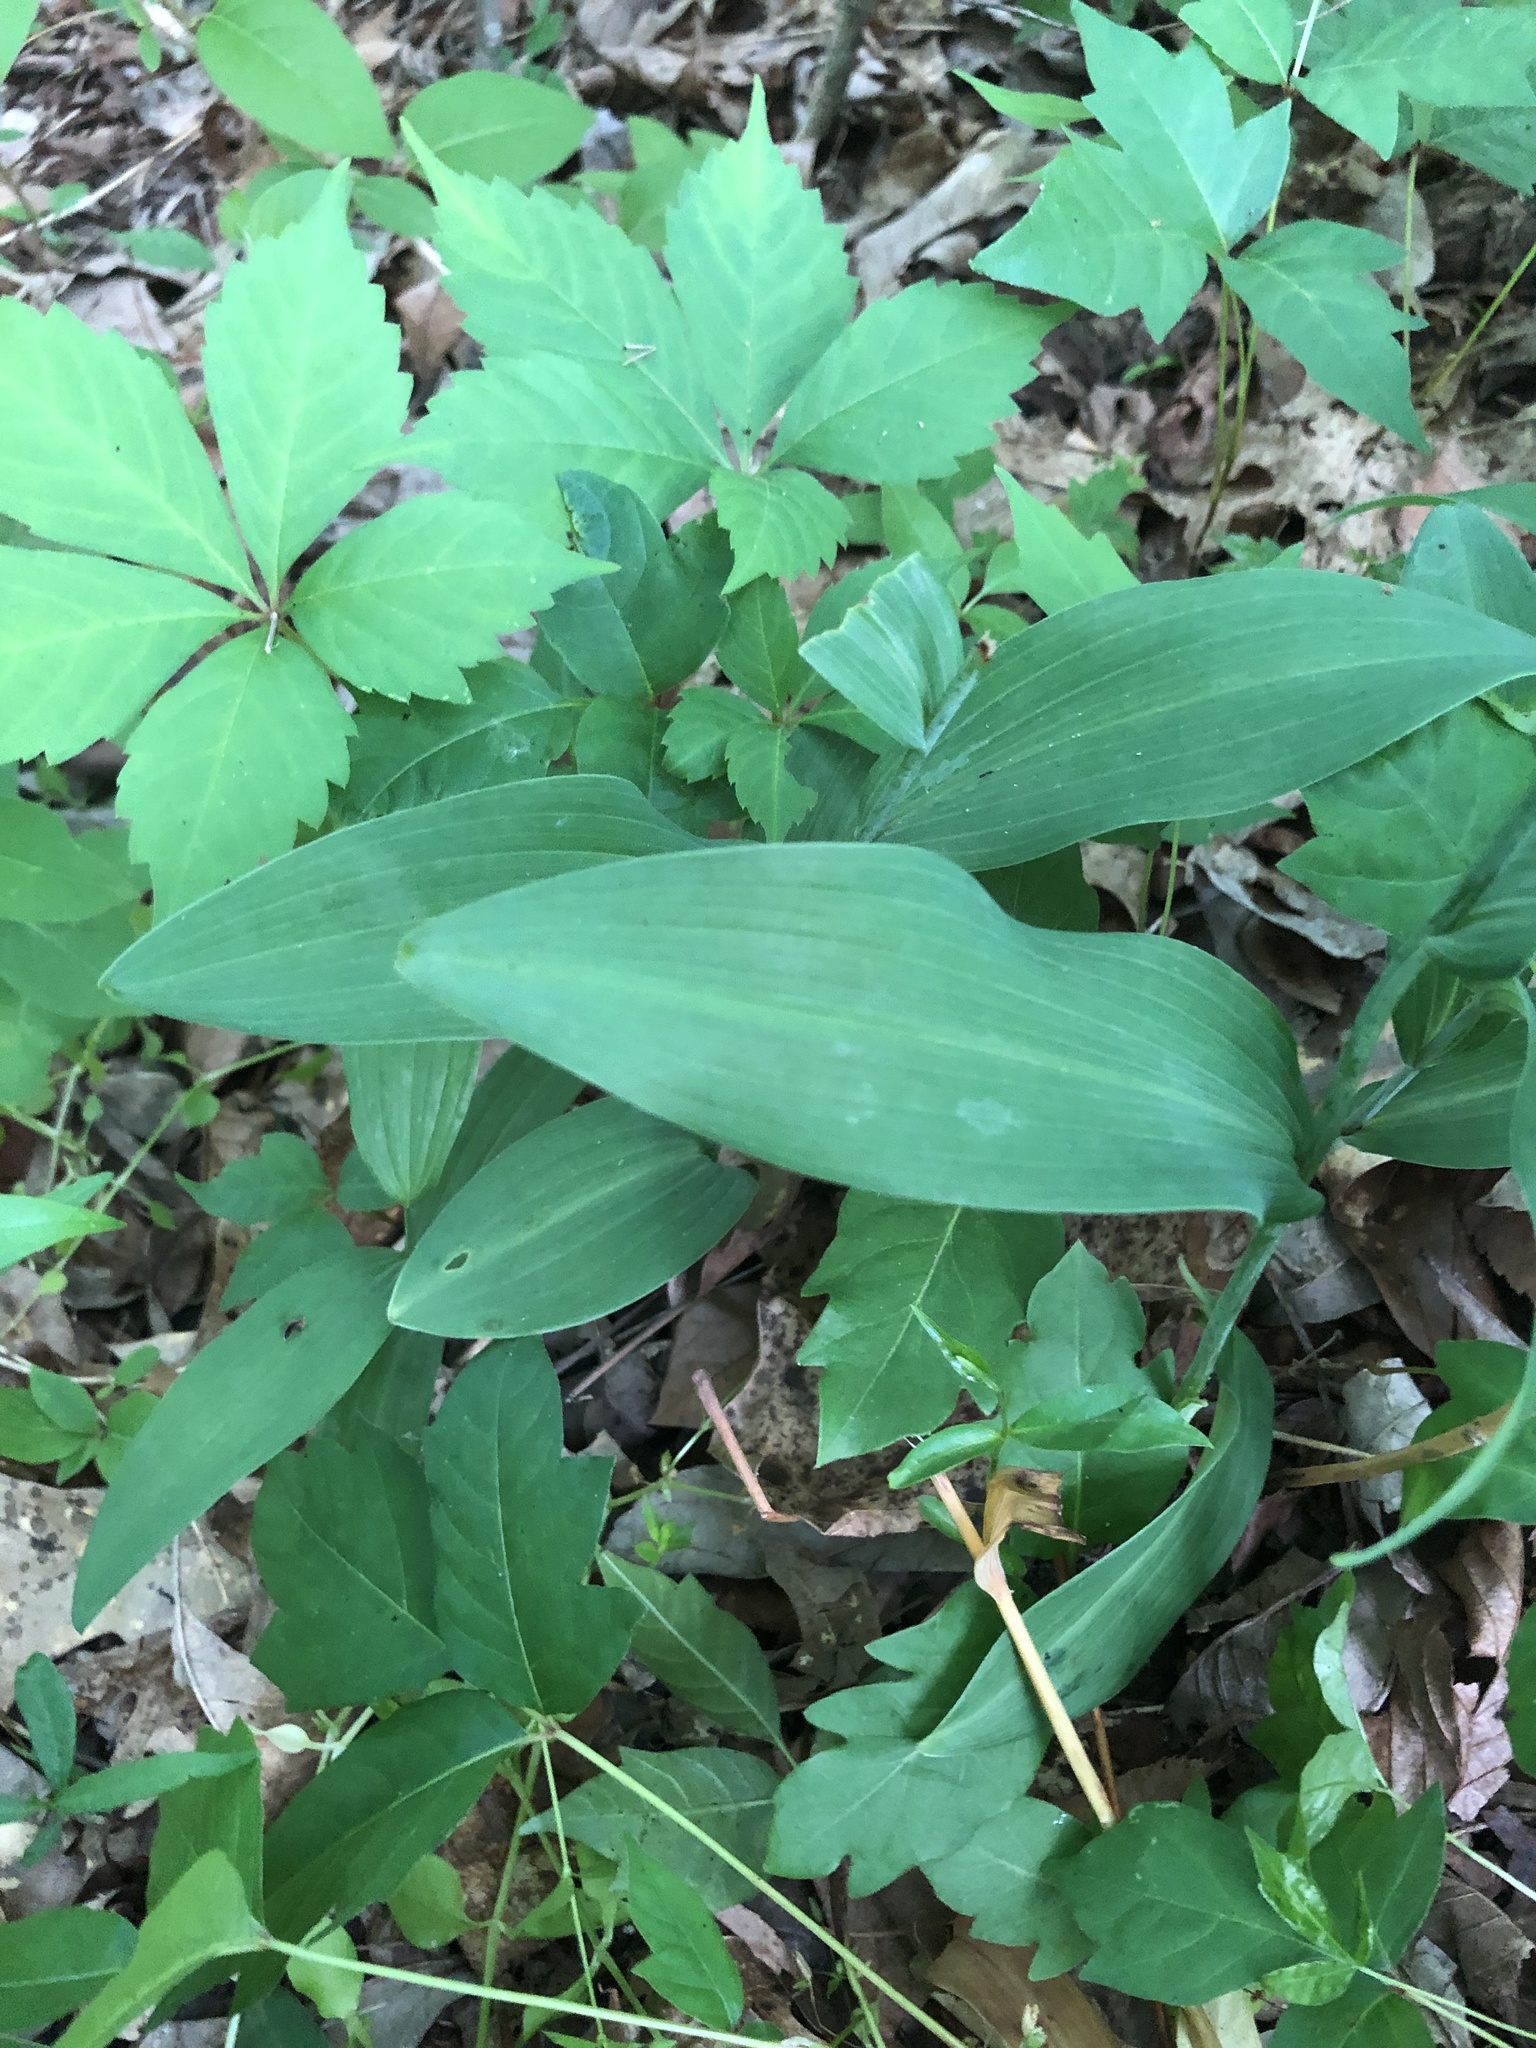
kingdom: Plantae
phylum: Tracheophyta
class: Liliopsida
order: Asparagales
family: Asparagaceae
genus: Polygonatum
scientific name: Polygonatum biflorum
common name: American solomon's-seal
